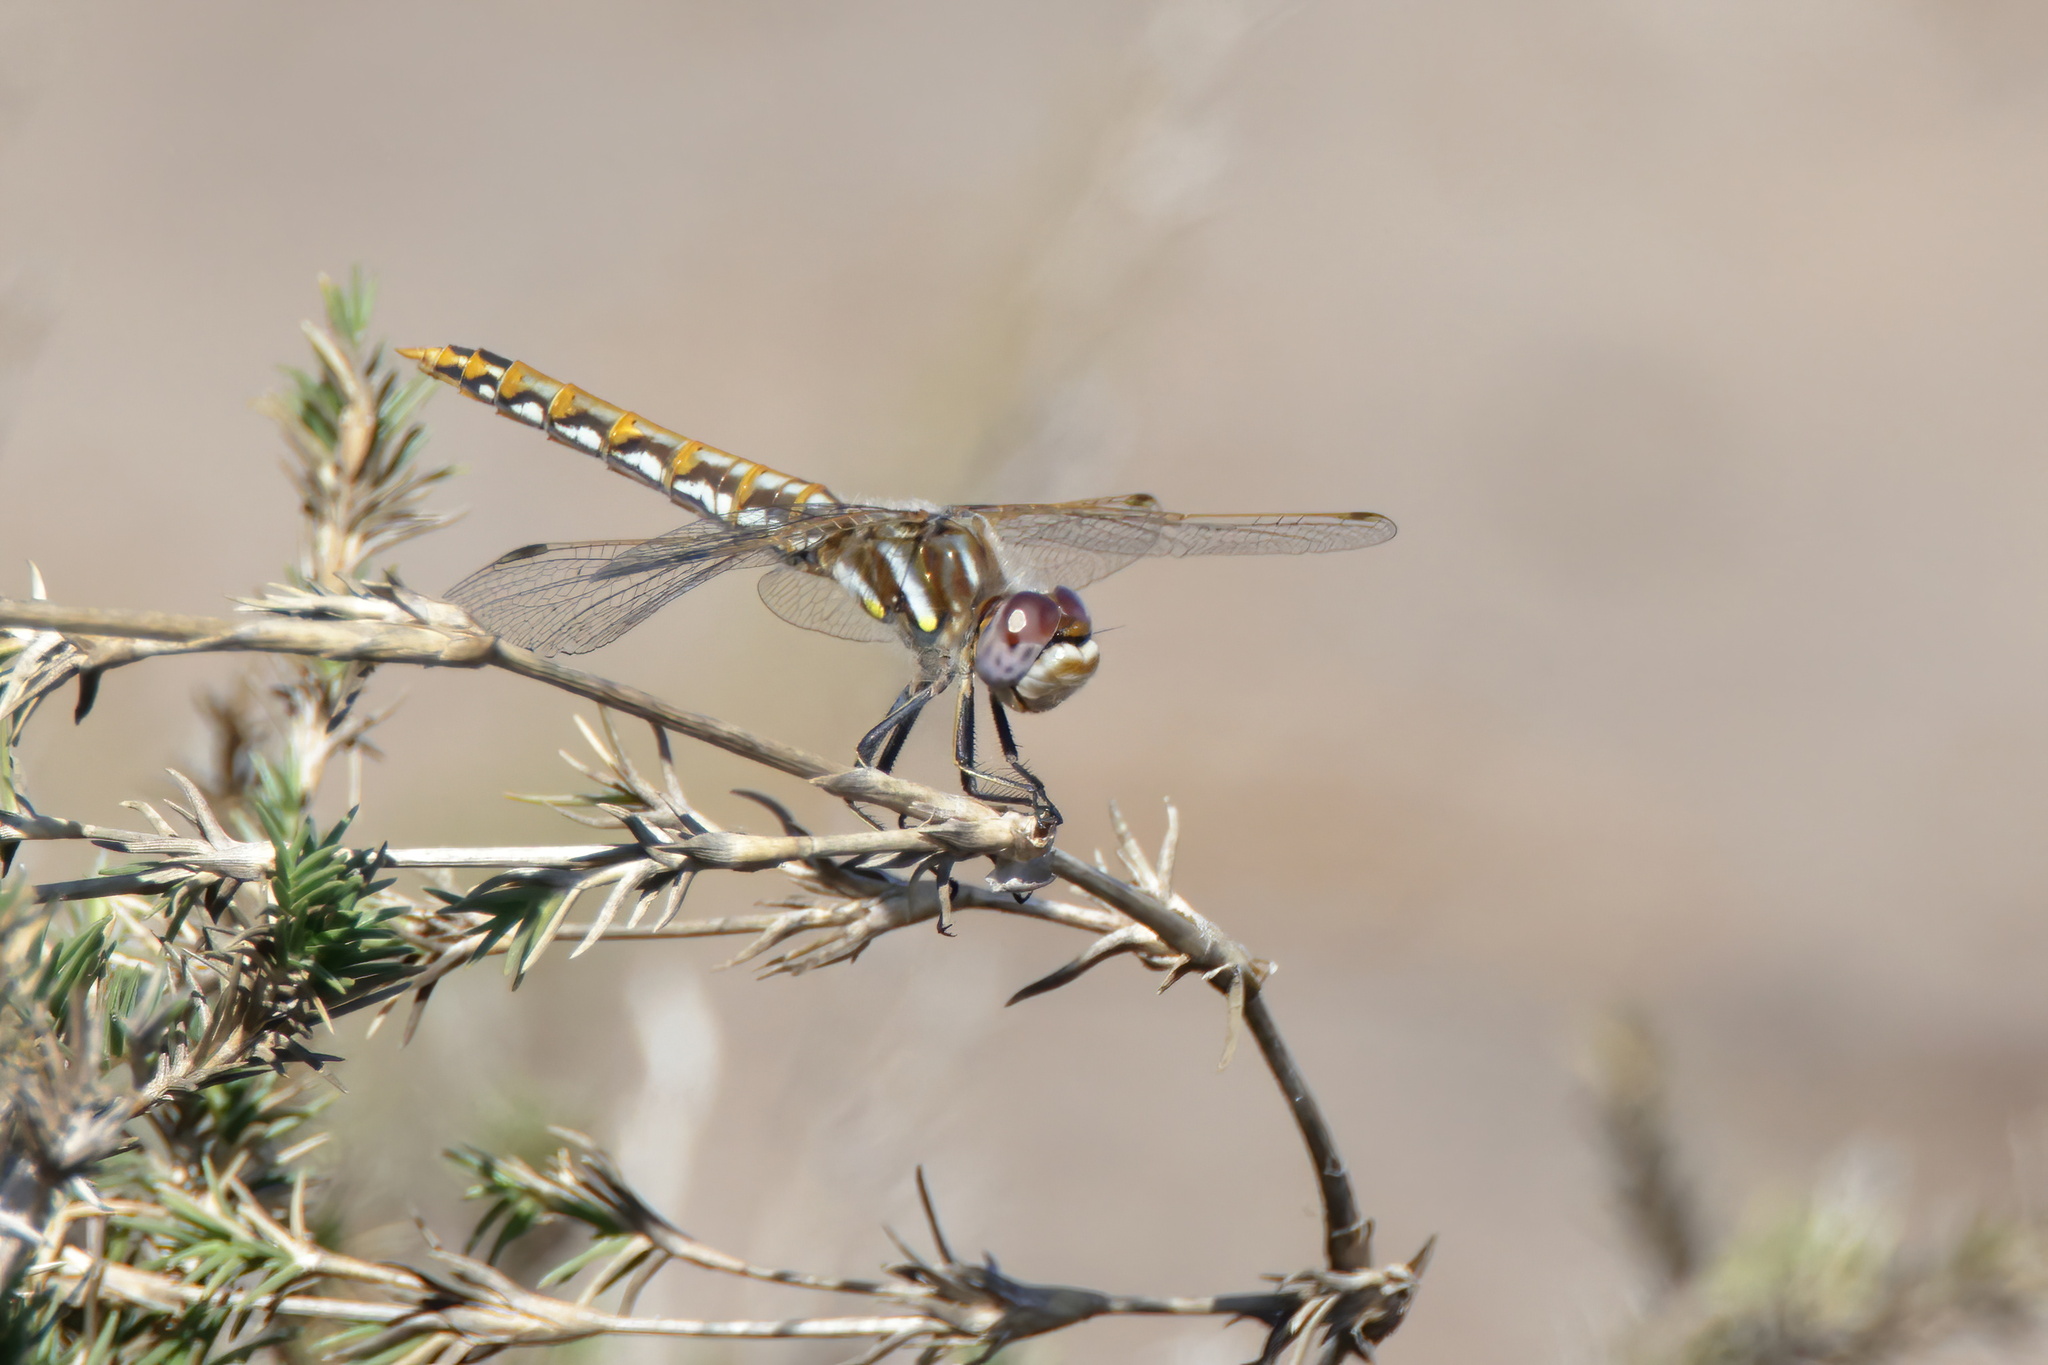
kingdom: Animalia
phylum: Arthropoda
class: Insecta
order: Odonata
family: Libellulidae
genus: Sympetrum
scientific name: Sympetrum corruptum
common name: Variegated meadowhawk
